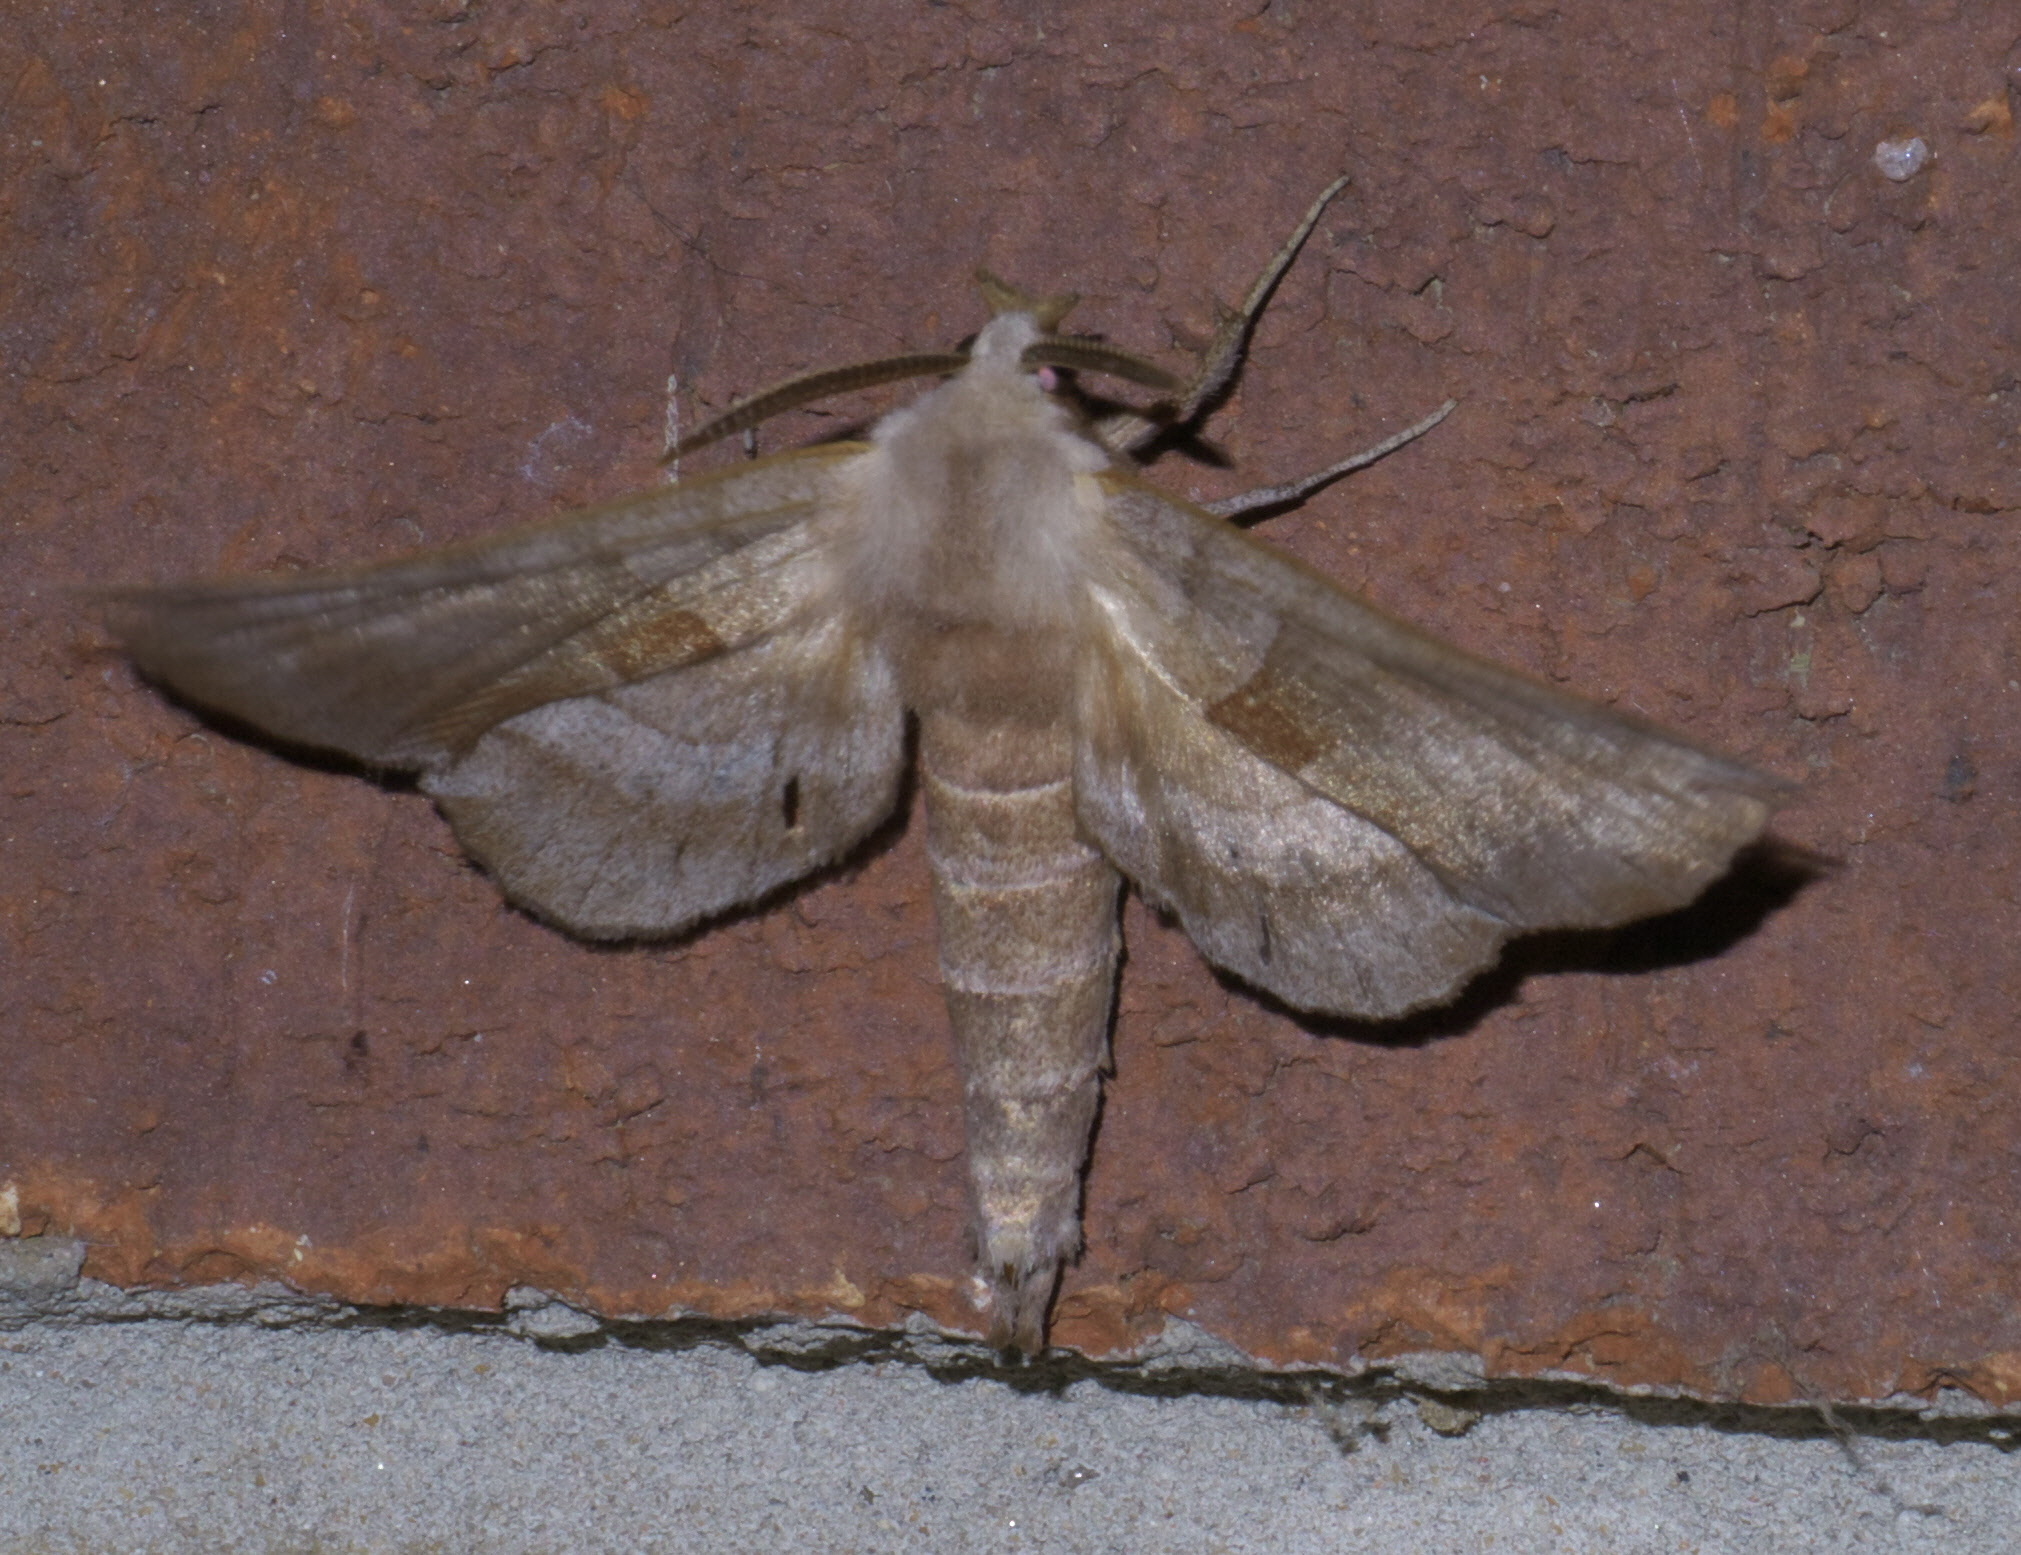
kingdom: Animalia
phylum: Arthropoda
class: Insecta
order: Lepidoptera
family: Sphingidae
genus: Amorpha
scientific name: Amorpha juglandis
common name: Walnut sphinx
